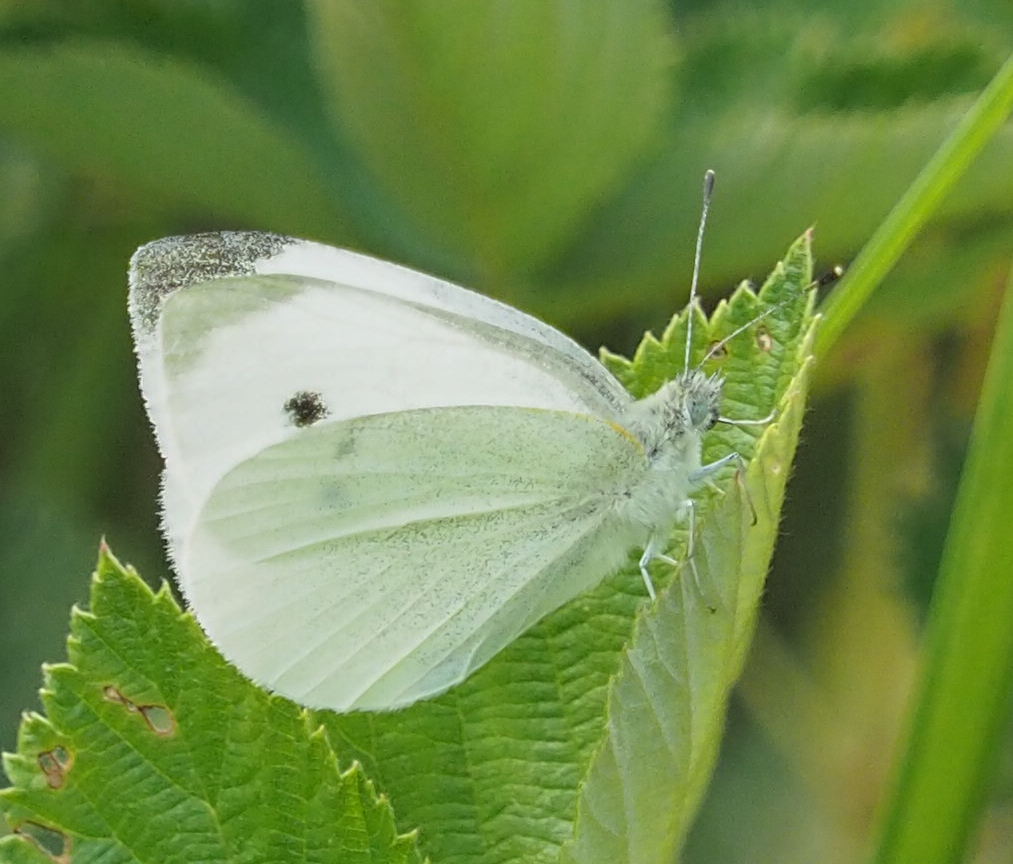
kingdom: Animalia
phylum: Arthropoda
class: Insecta
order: Lepidoptera
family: Pieridae
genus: Pieris
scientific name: Pieris rapae
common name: Small white
